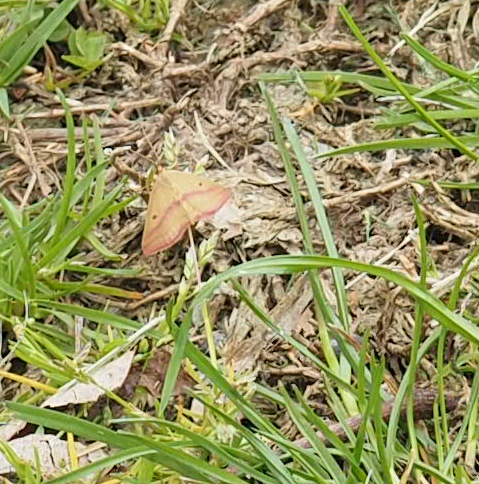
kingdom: Animalia
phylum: Arthropoda
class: Insecta
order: Lepidoptera
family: Geometridae
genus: Haematopis
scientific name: Haematopis grataria
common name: Chickweed geometer
